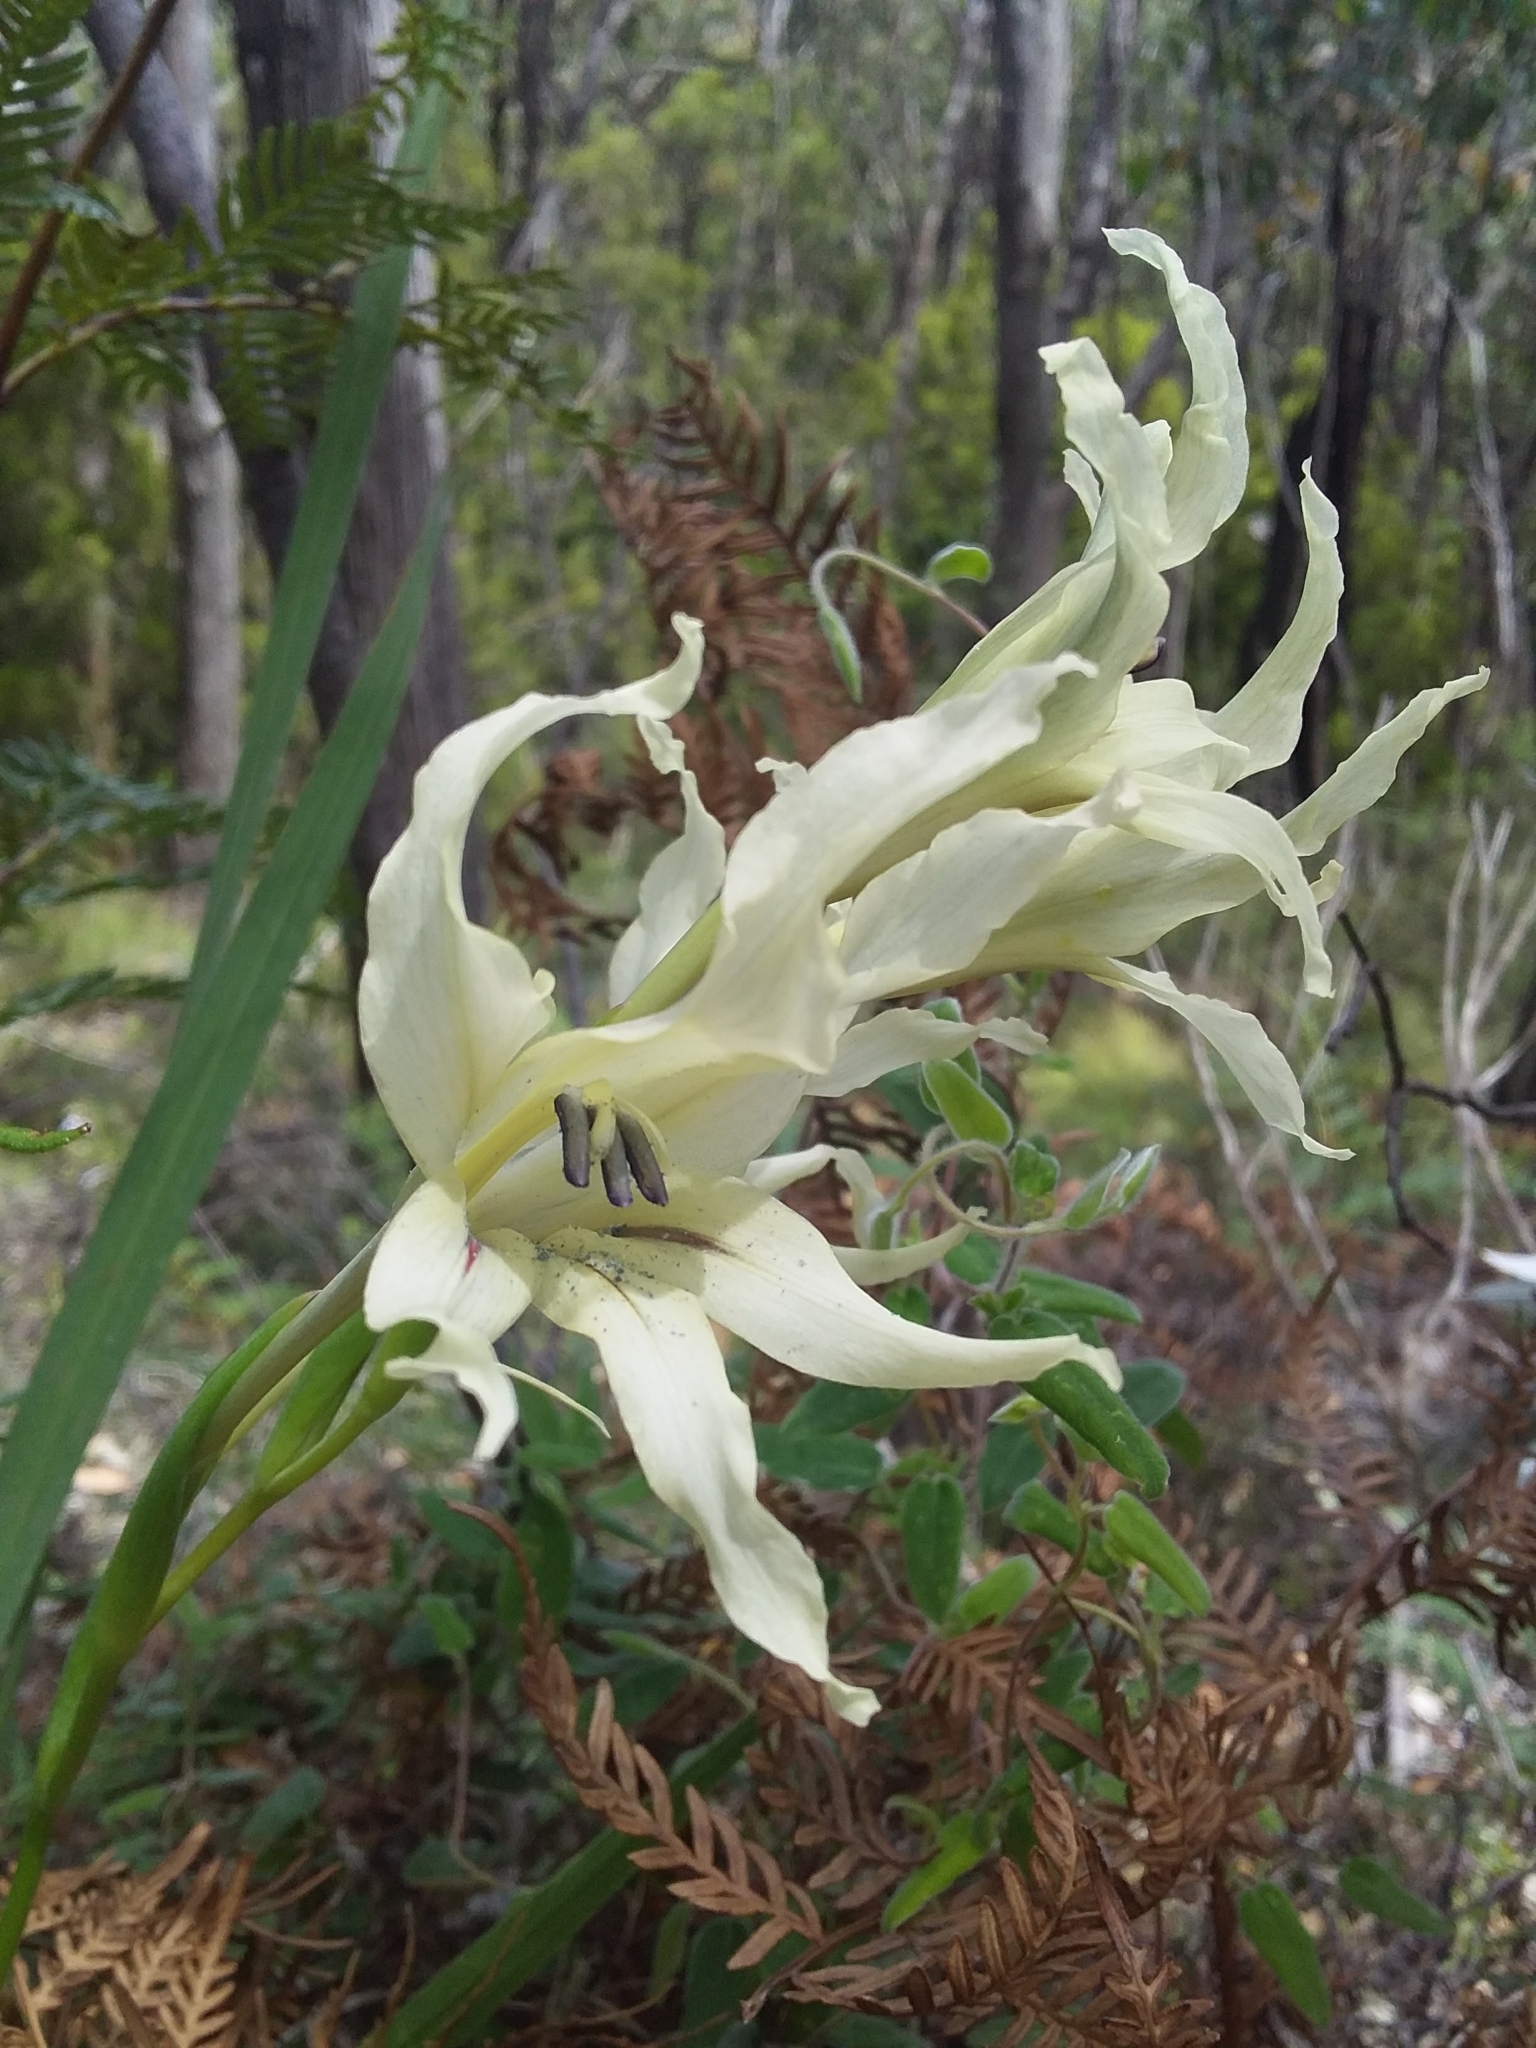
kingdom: Plantae
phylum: Tracheophyta
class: Liliopsida
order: Asparagales
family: Iridaceae
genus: Gladiolus
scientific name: Gladiolus undulatus
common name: Large painted-lady
